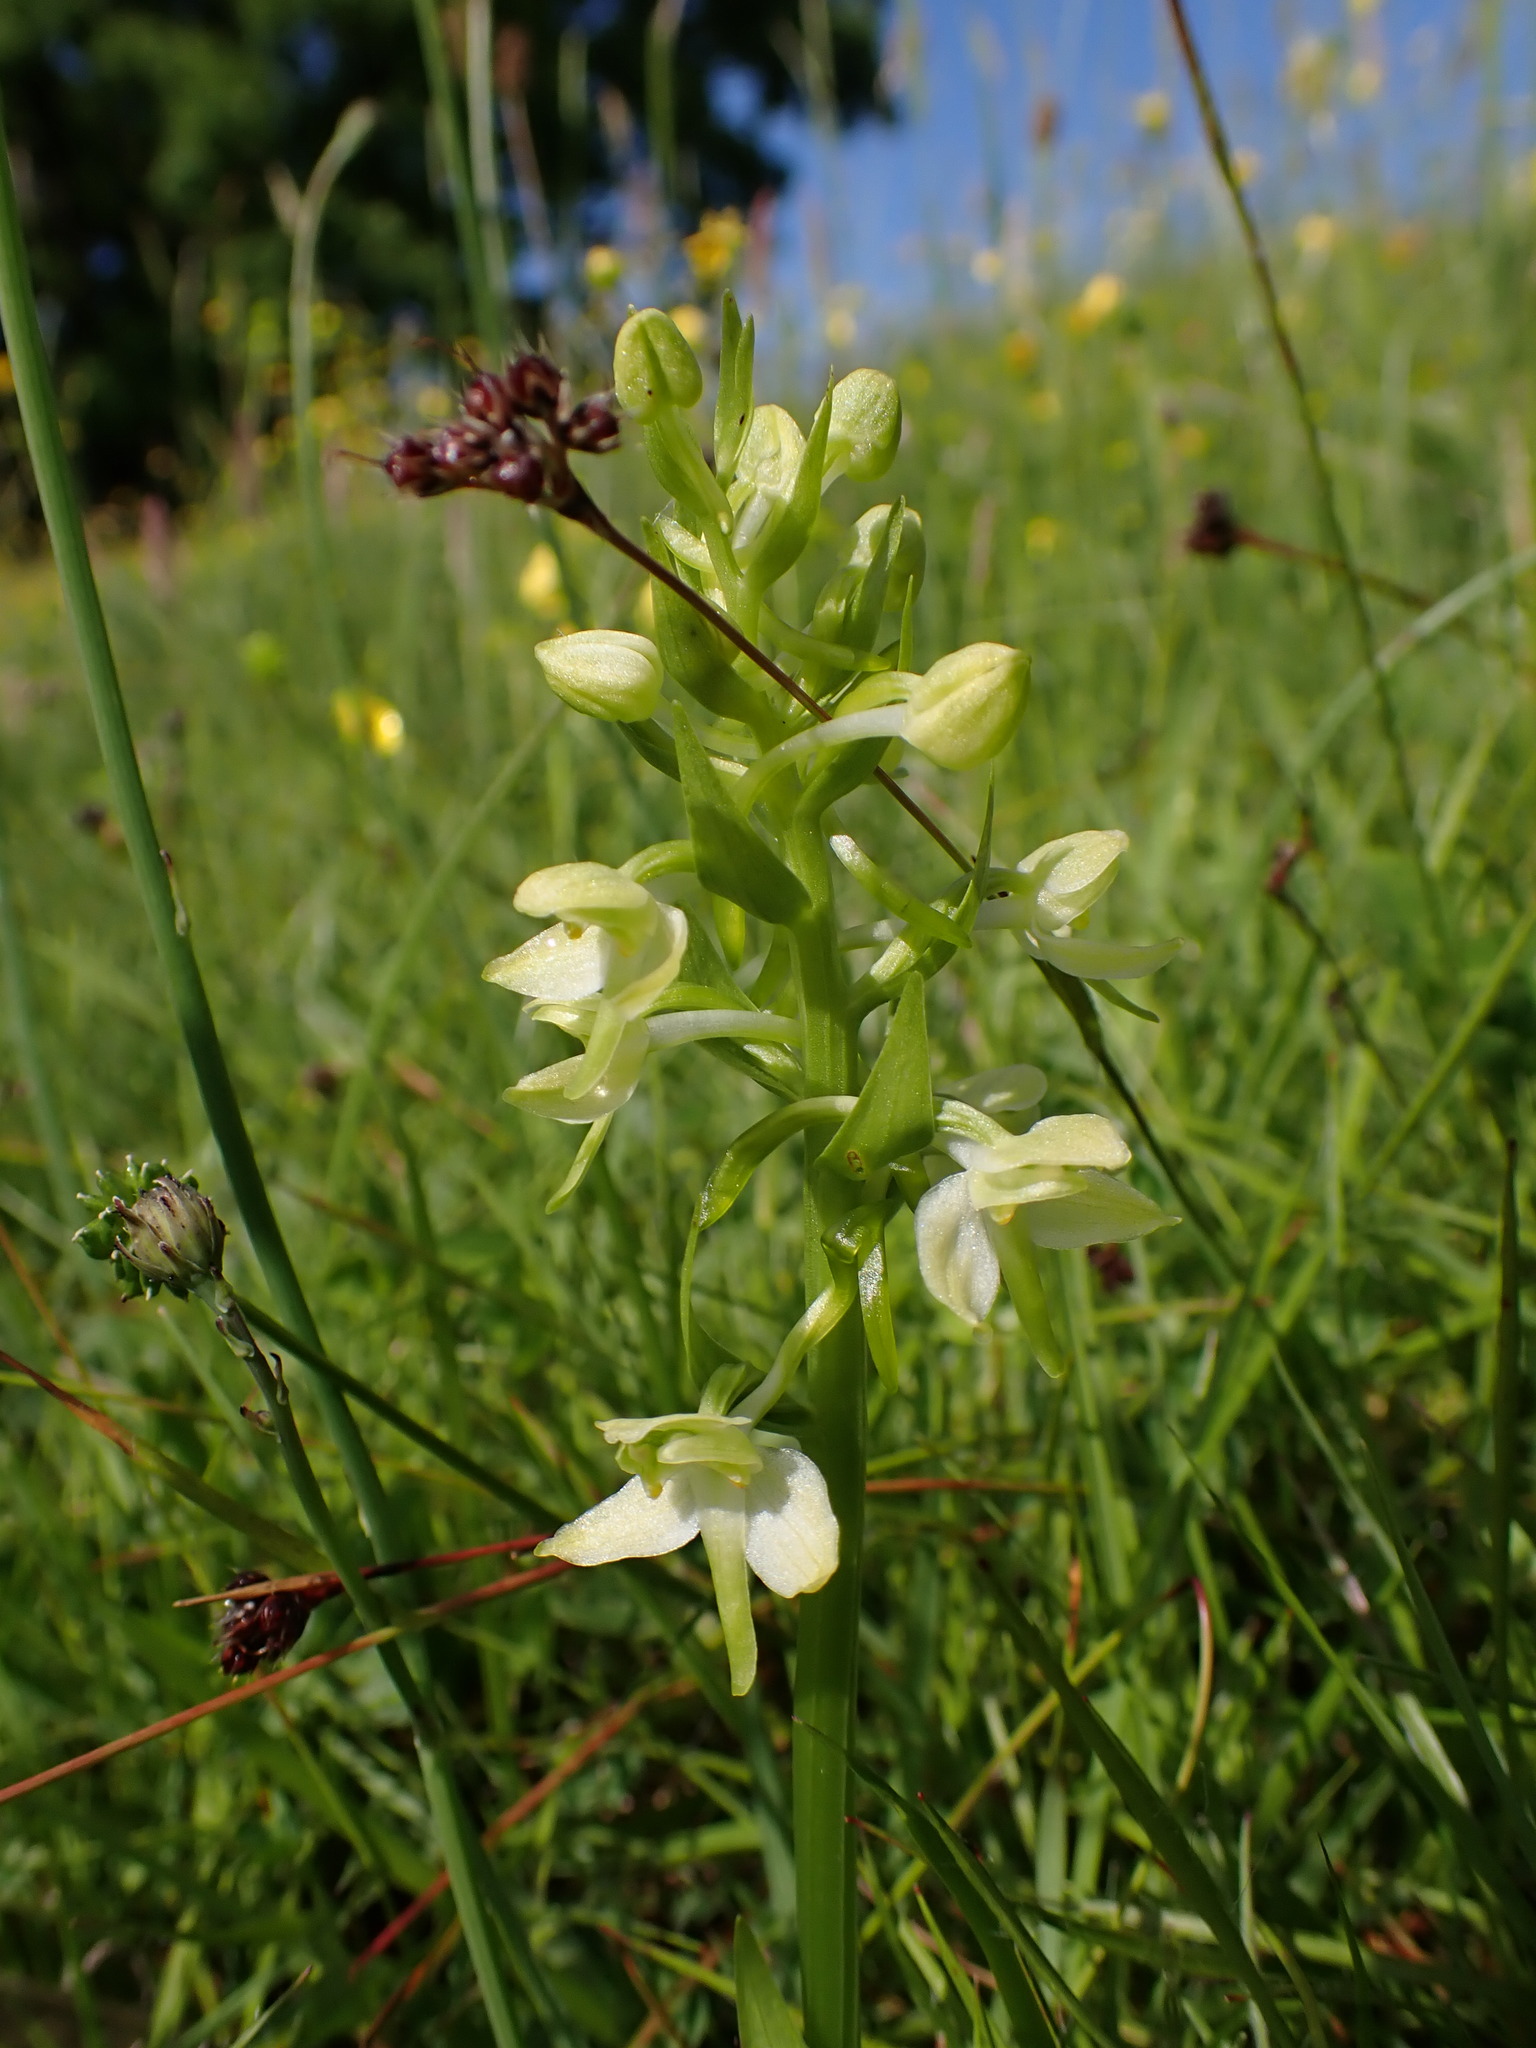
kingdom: Plantae
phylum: Tracheophyta
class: Liliopsida
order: Asparagales
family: Orchidaceae
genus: Platanthera
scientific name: Platanthera chlorantha
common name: Greater butterfly-orchid
